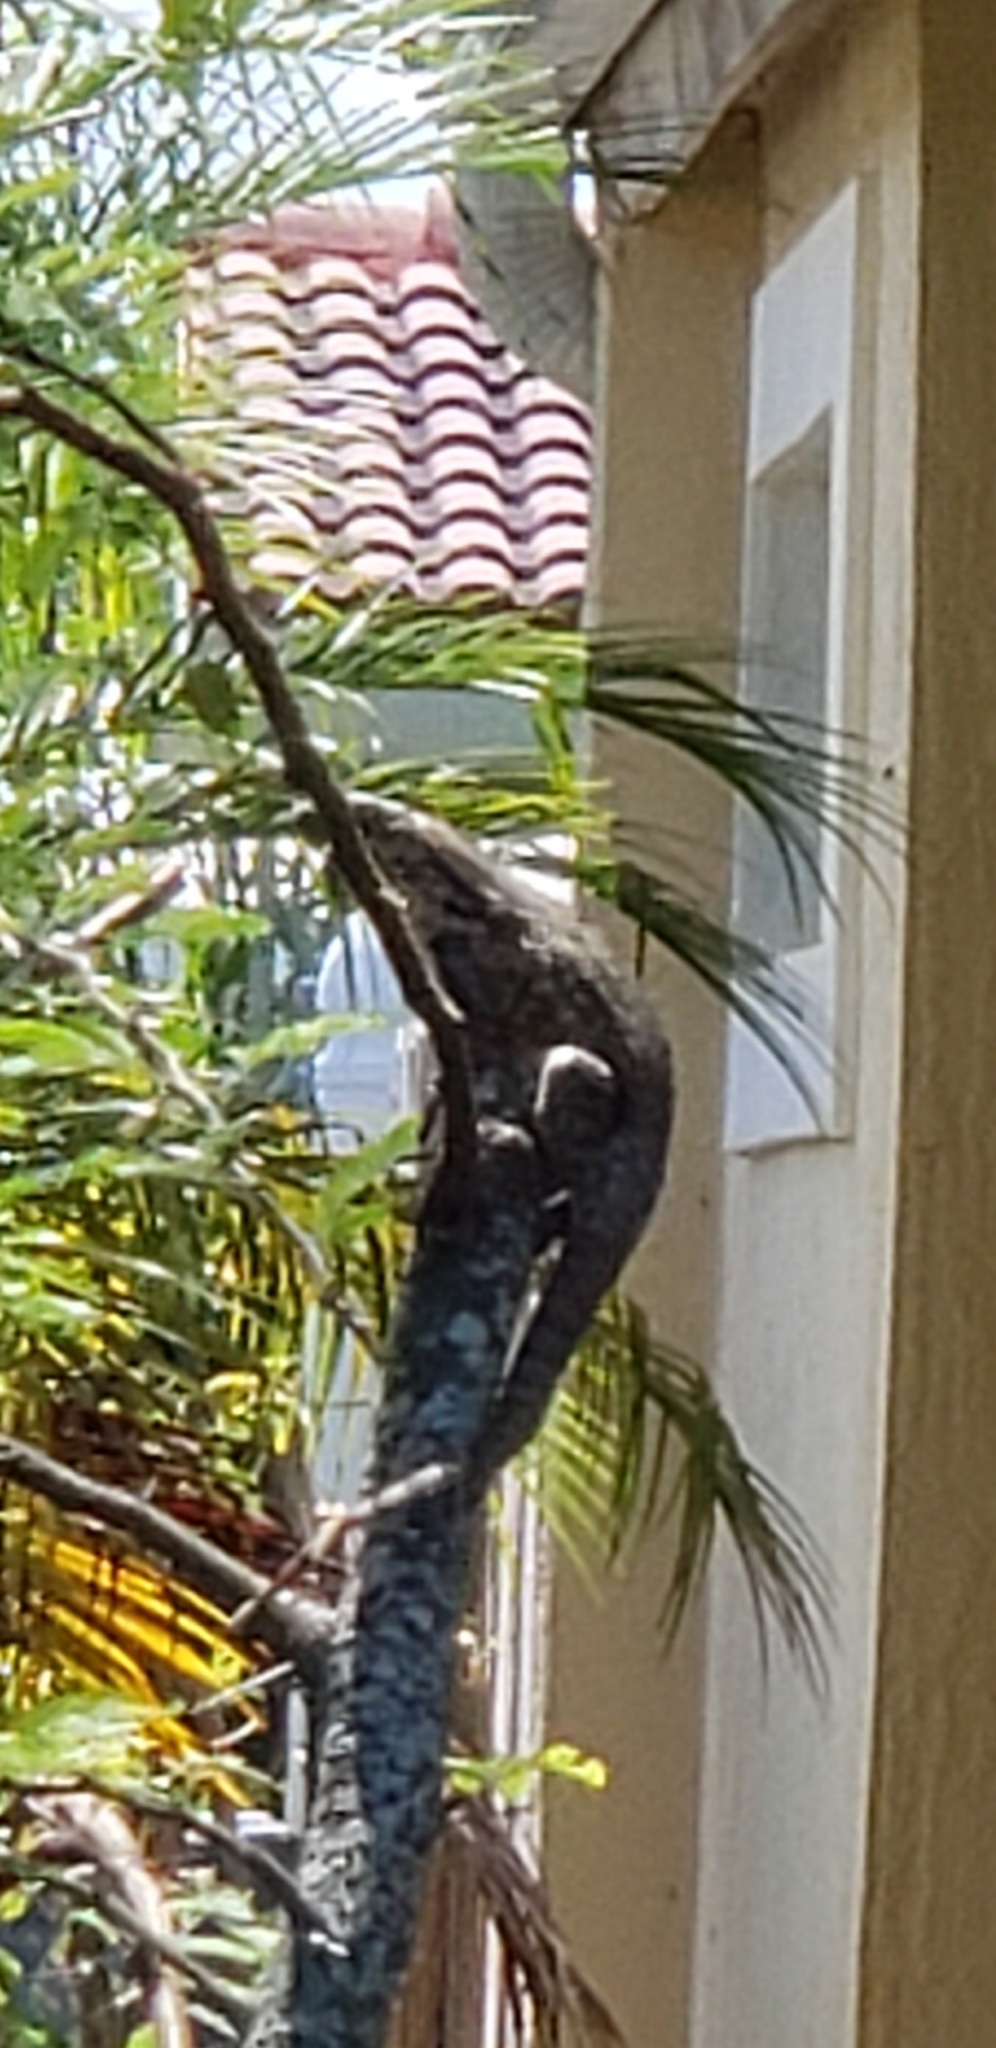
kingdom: Animalia
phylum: Chordata
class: Squamata
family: Leiocephalidae
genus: Leiocephalus
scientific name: Leiocephalus carinatus
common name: Northern curly-tailed lizard
